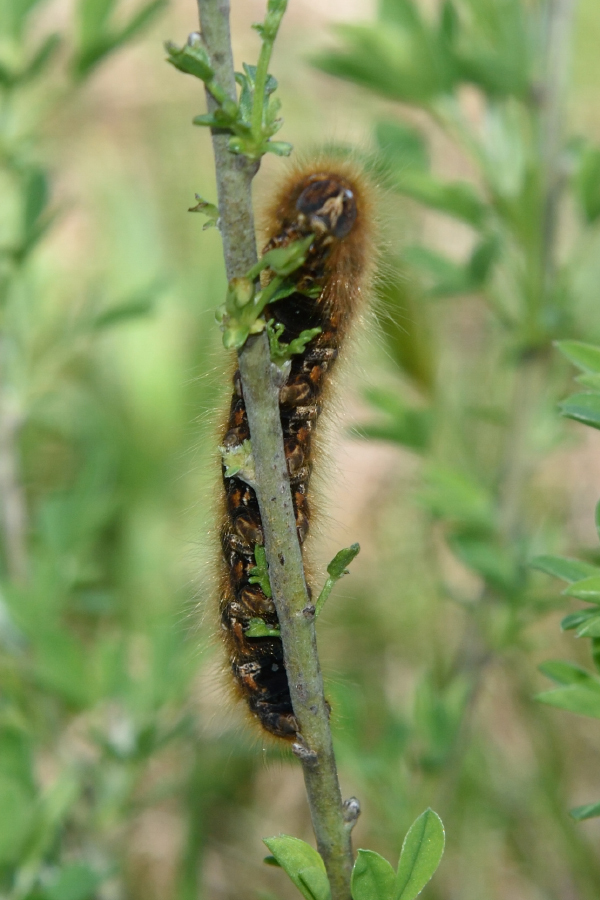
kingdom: Animalia
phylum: Arthropoda
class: Insecta
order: Lepidoptera
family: Lasiocampidae
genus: Lasiocampa
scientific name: Lasiocampa quercus
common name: Oak eggar
